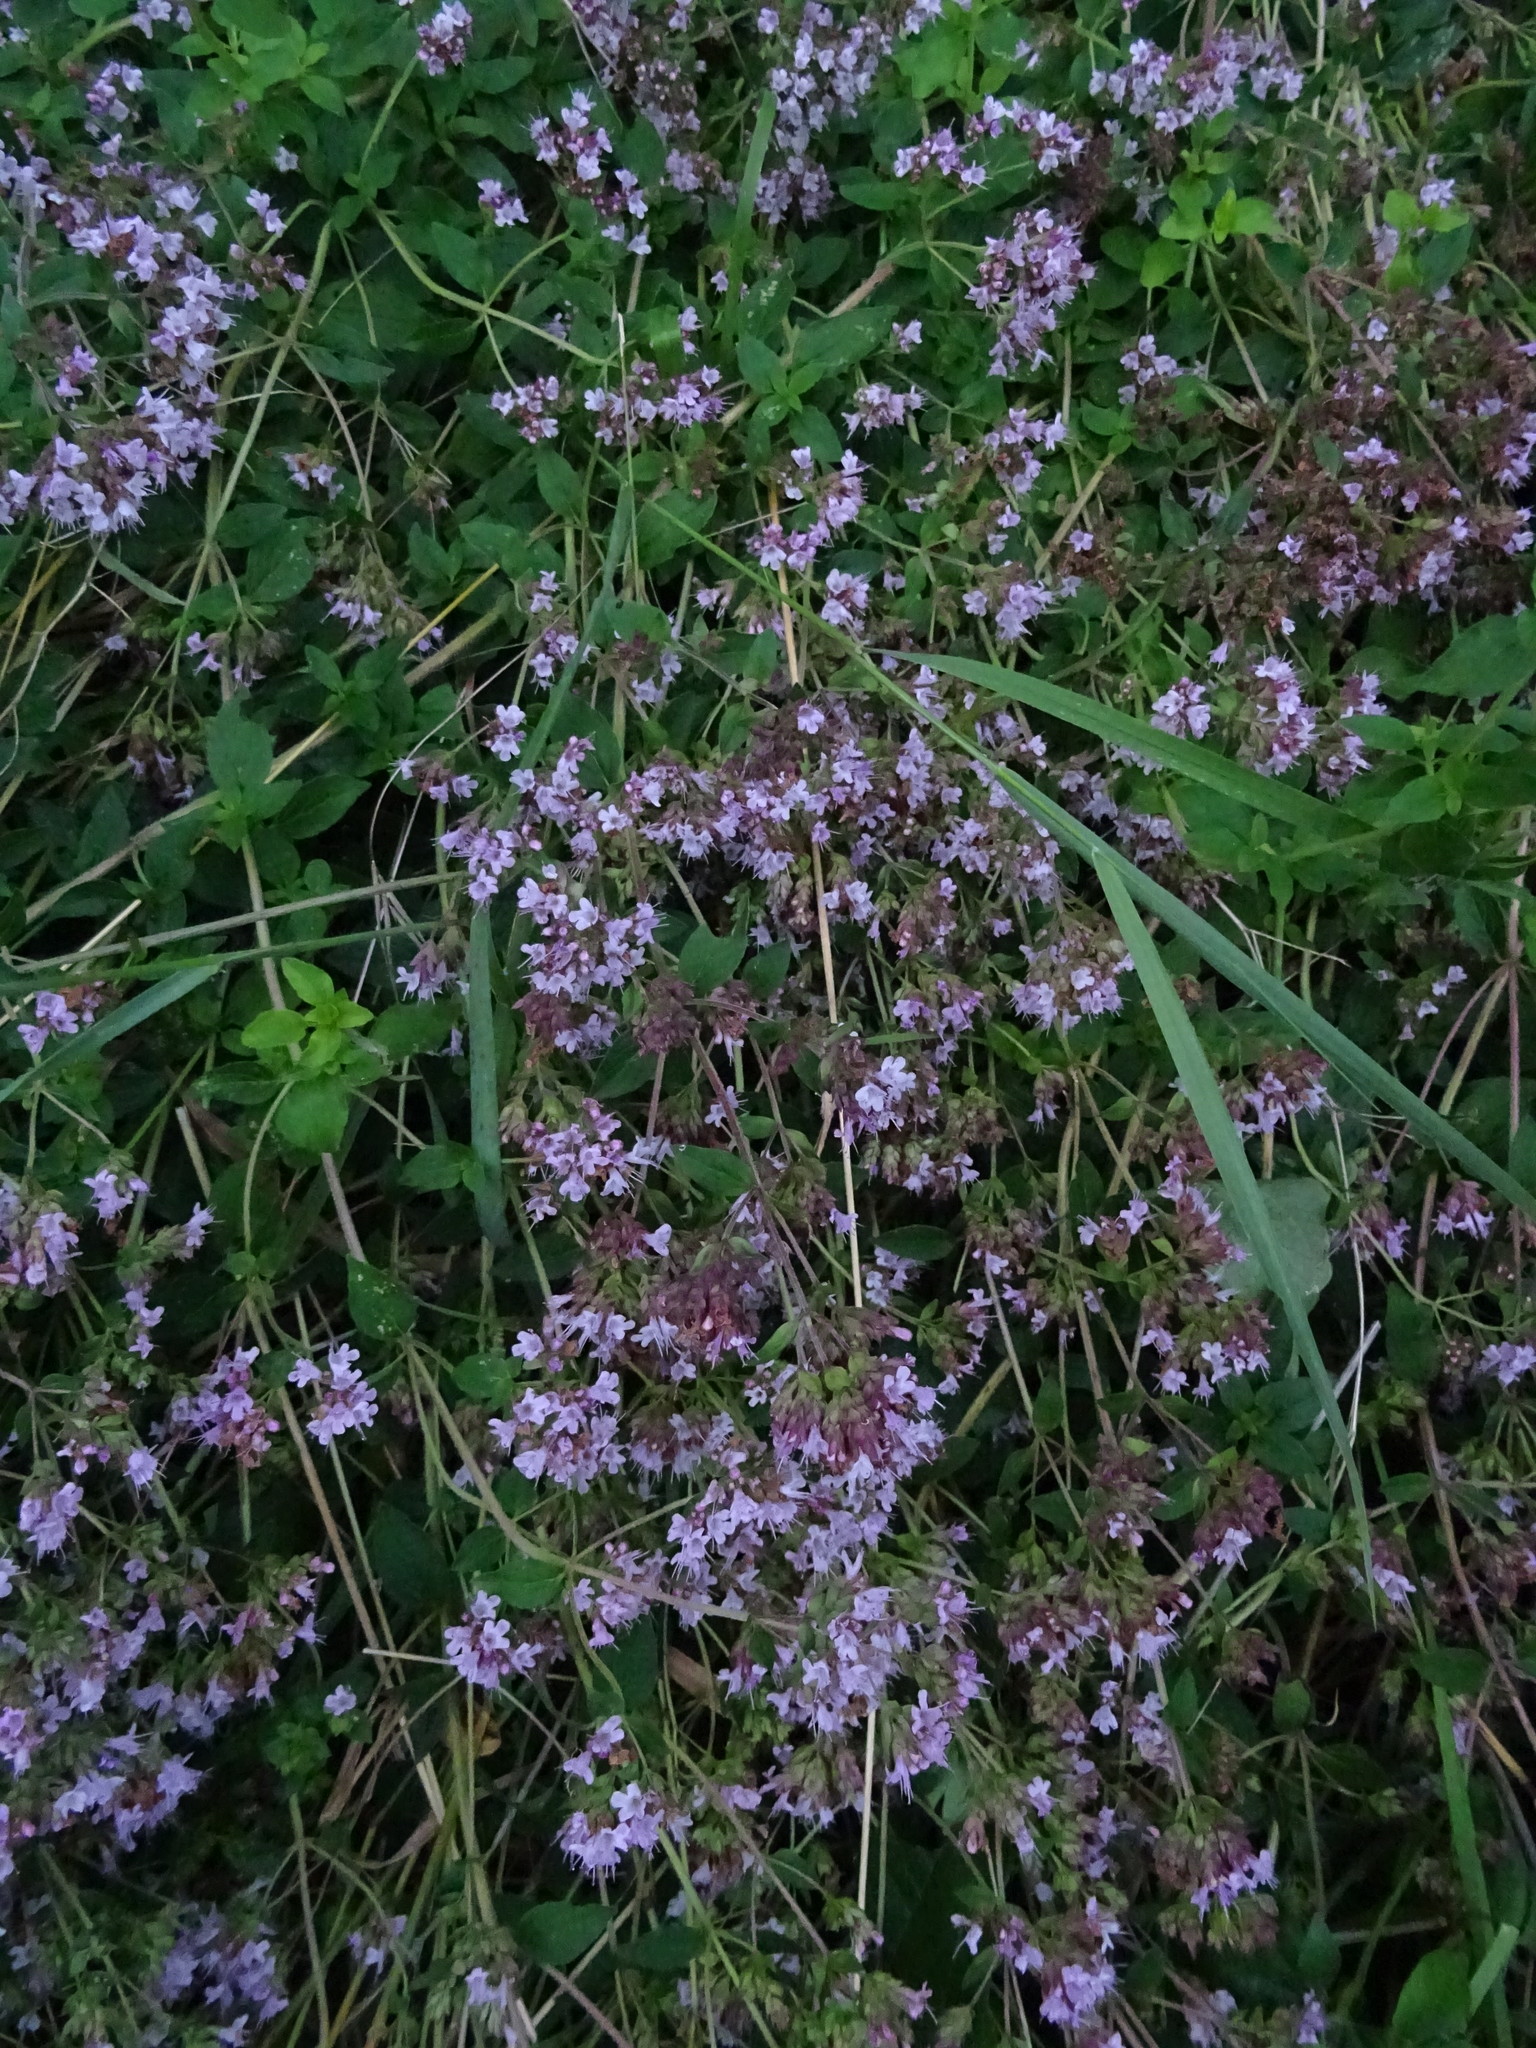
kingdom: Plantae
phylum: Tracheophyta
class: Magnoliopsida
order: Lamiales
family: Lamiaceae
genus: Origanum
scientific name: Origanum vulgare
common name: Wild marjoram
